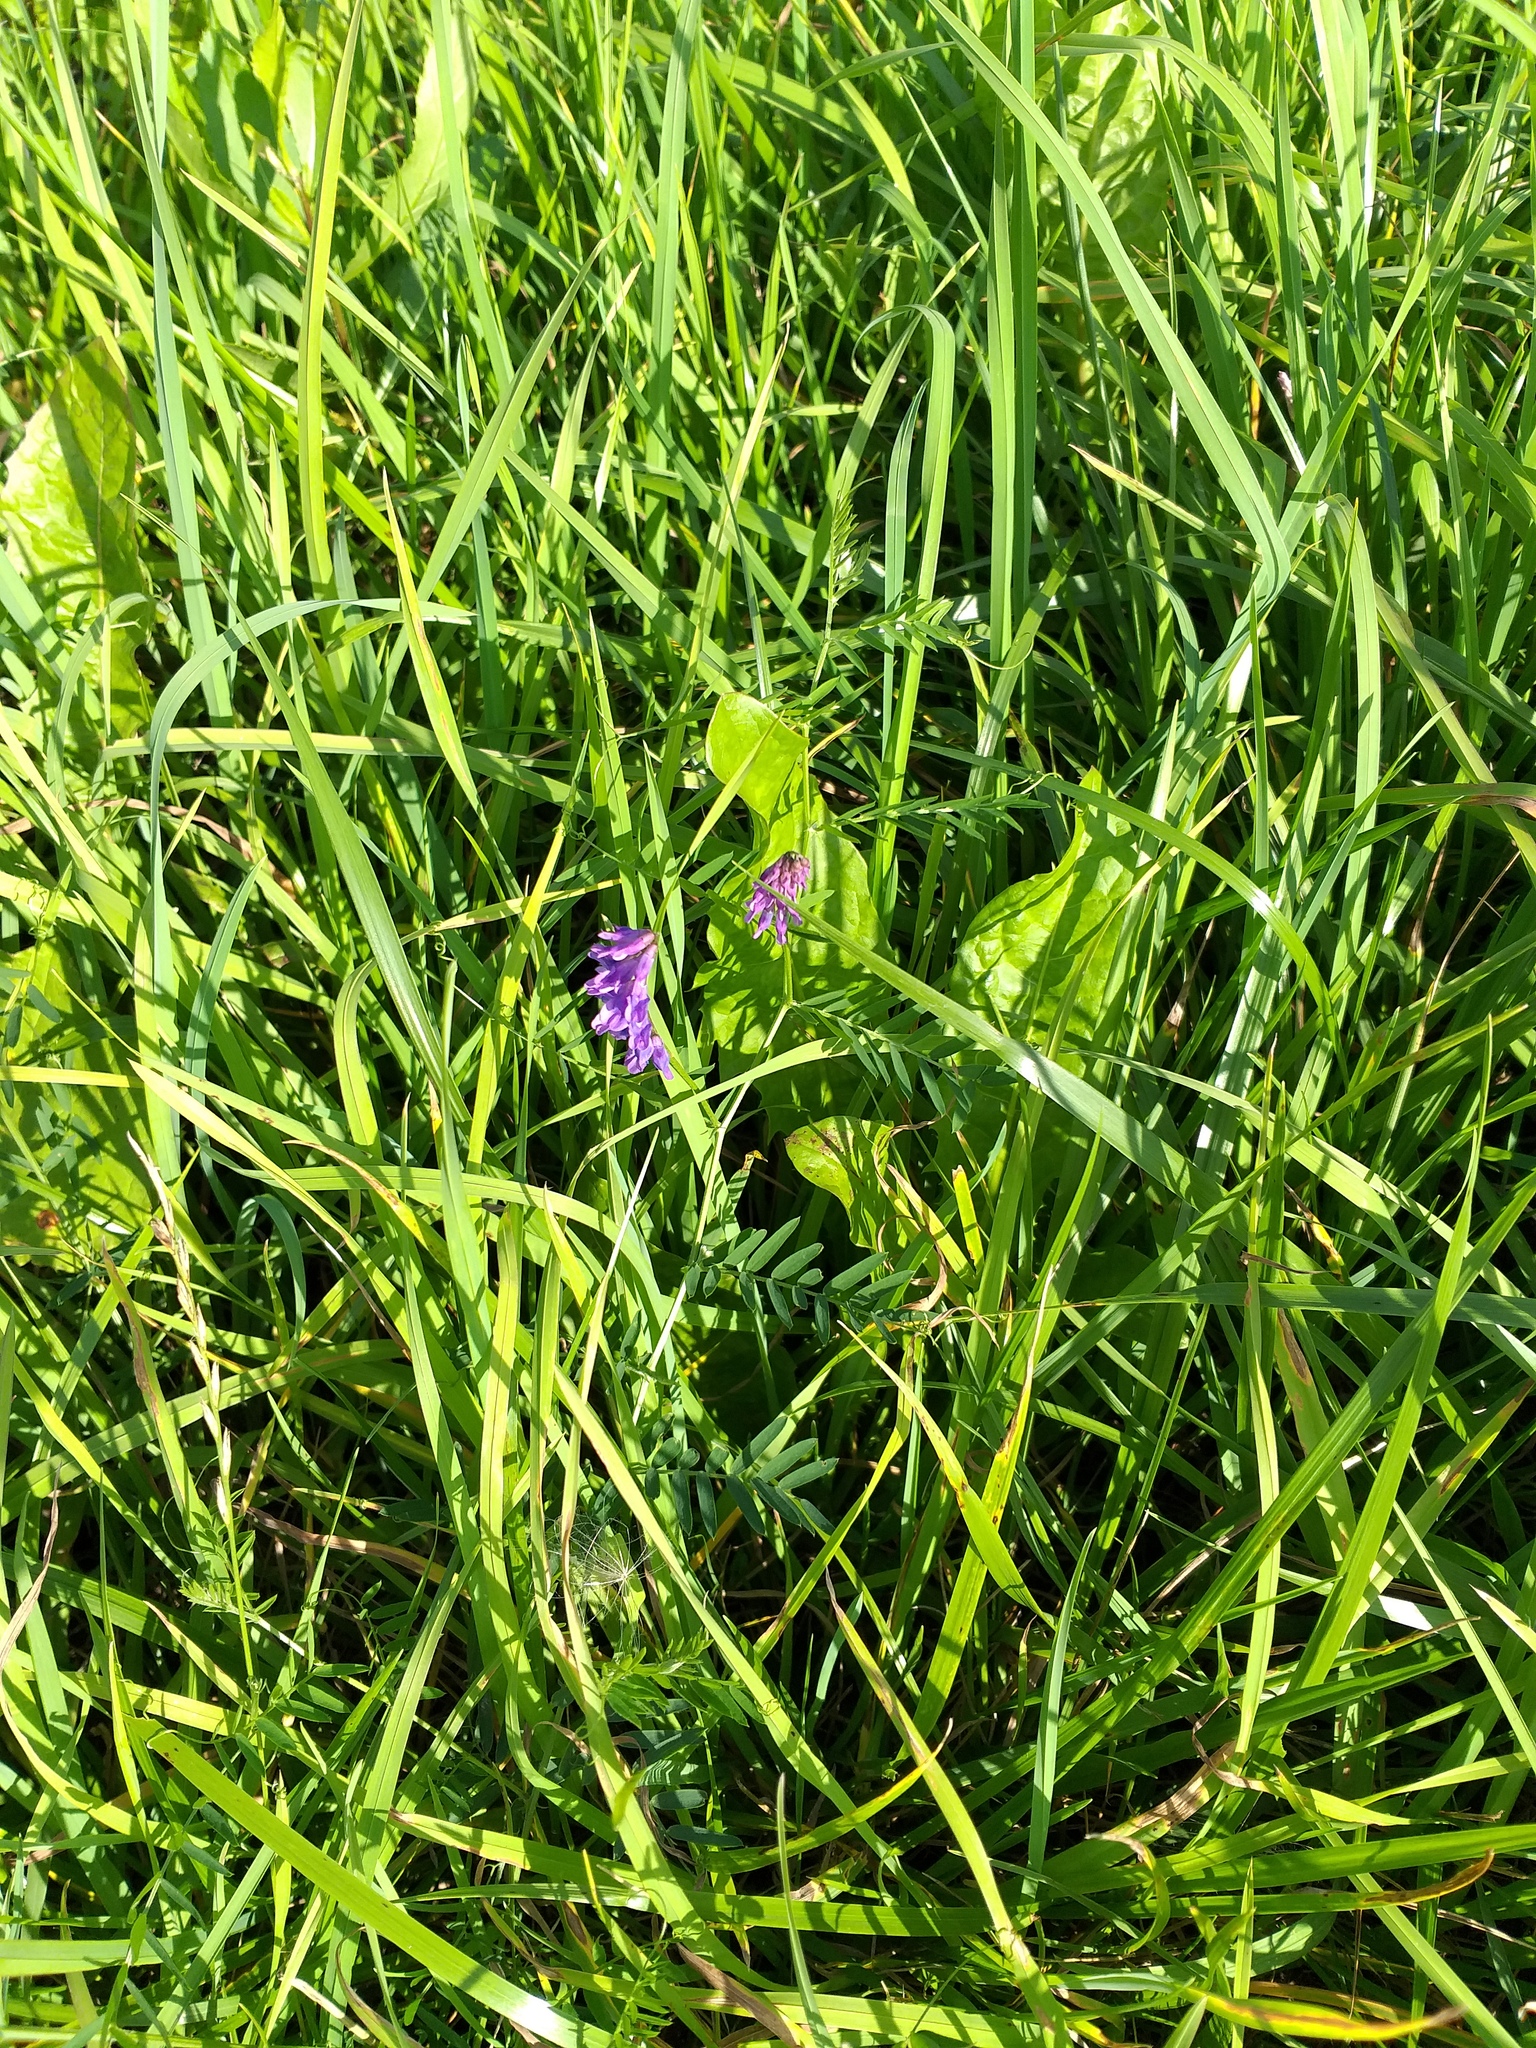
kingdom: Plantae
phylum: Tracheophyta
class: Magnoliopsida
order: Fabales
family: Fabaceae
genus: Vicia
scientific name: Vicia cracca
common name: Bird vetch
